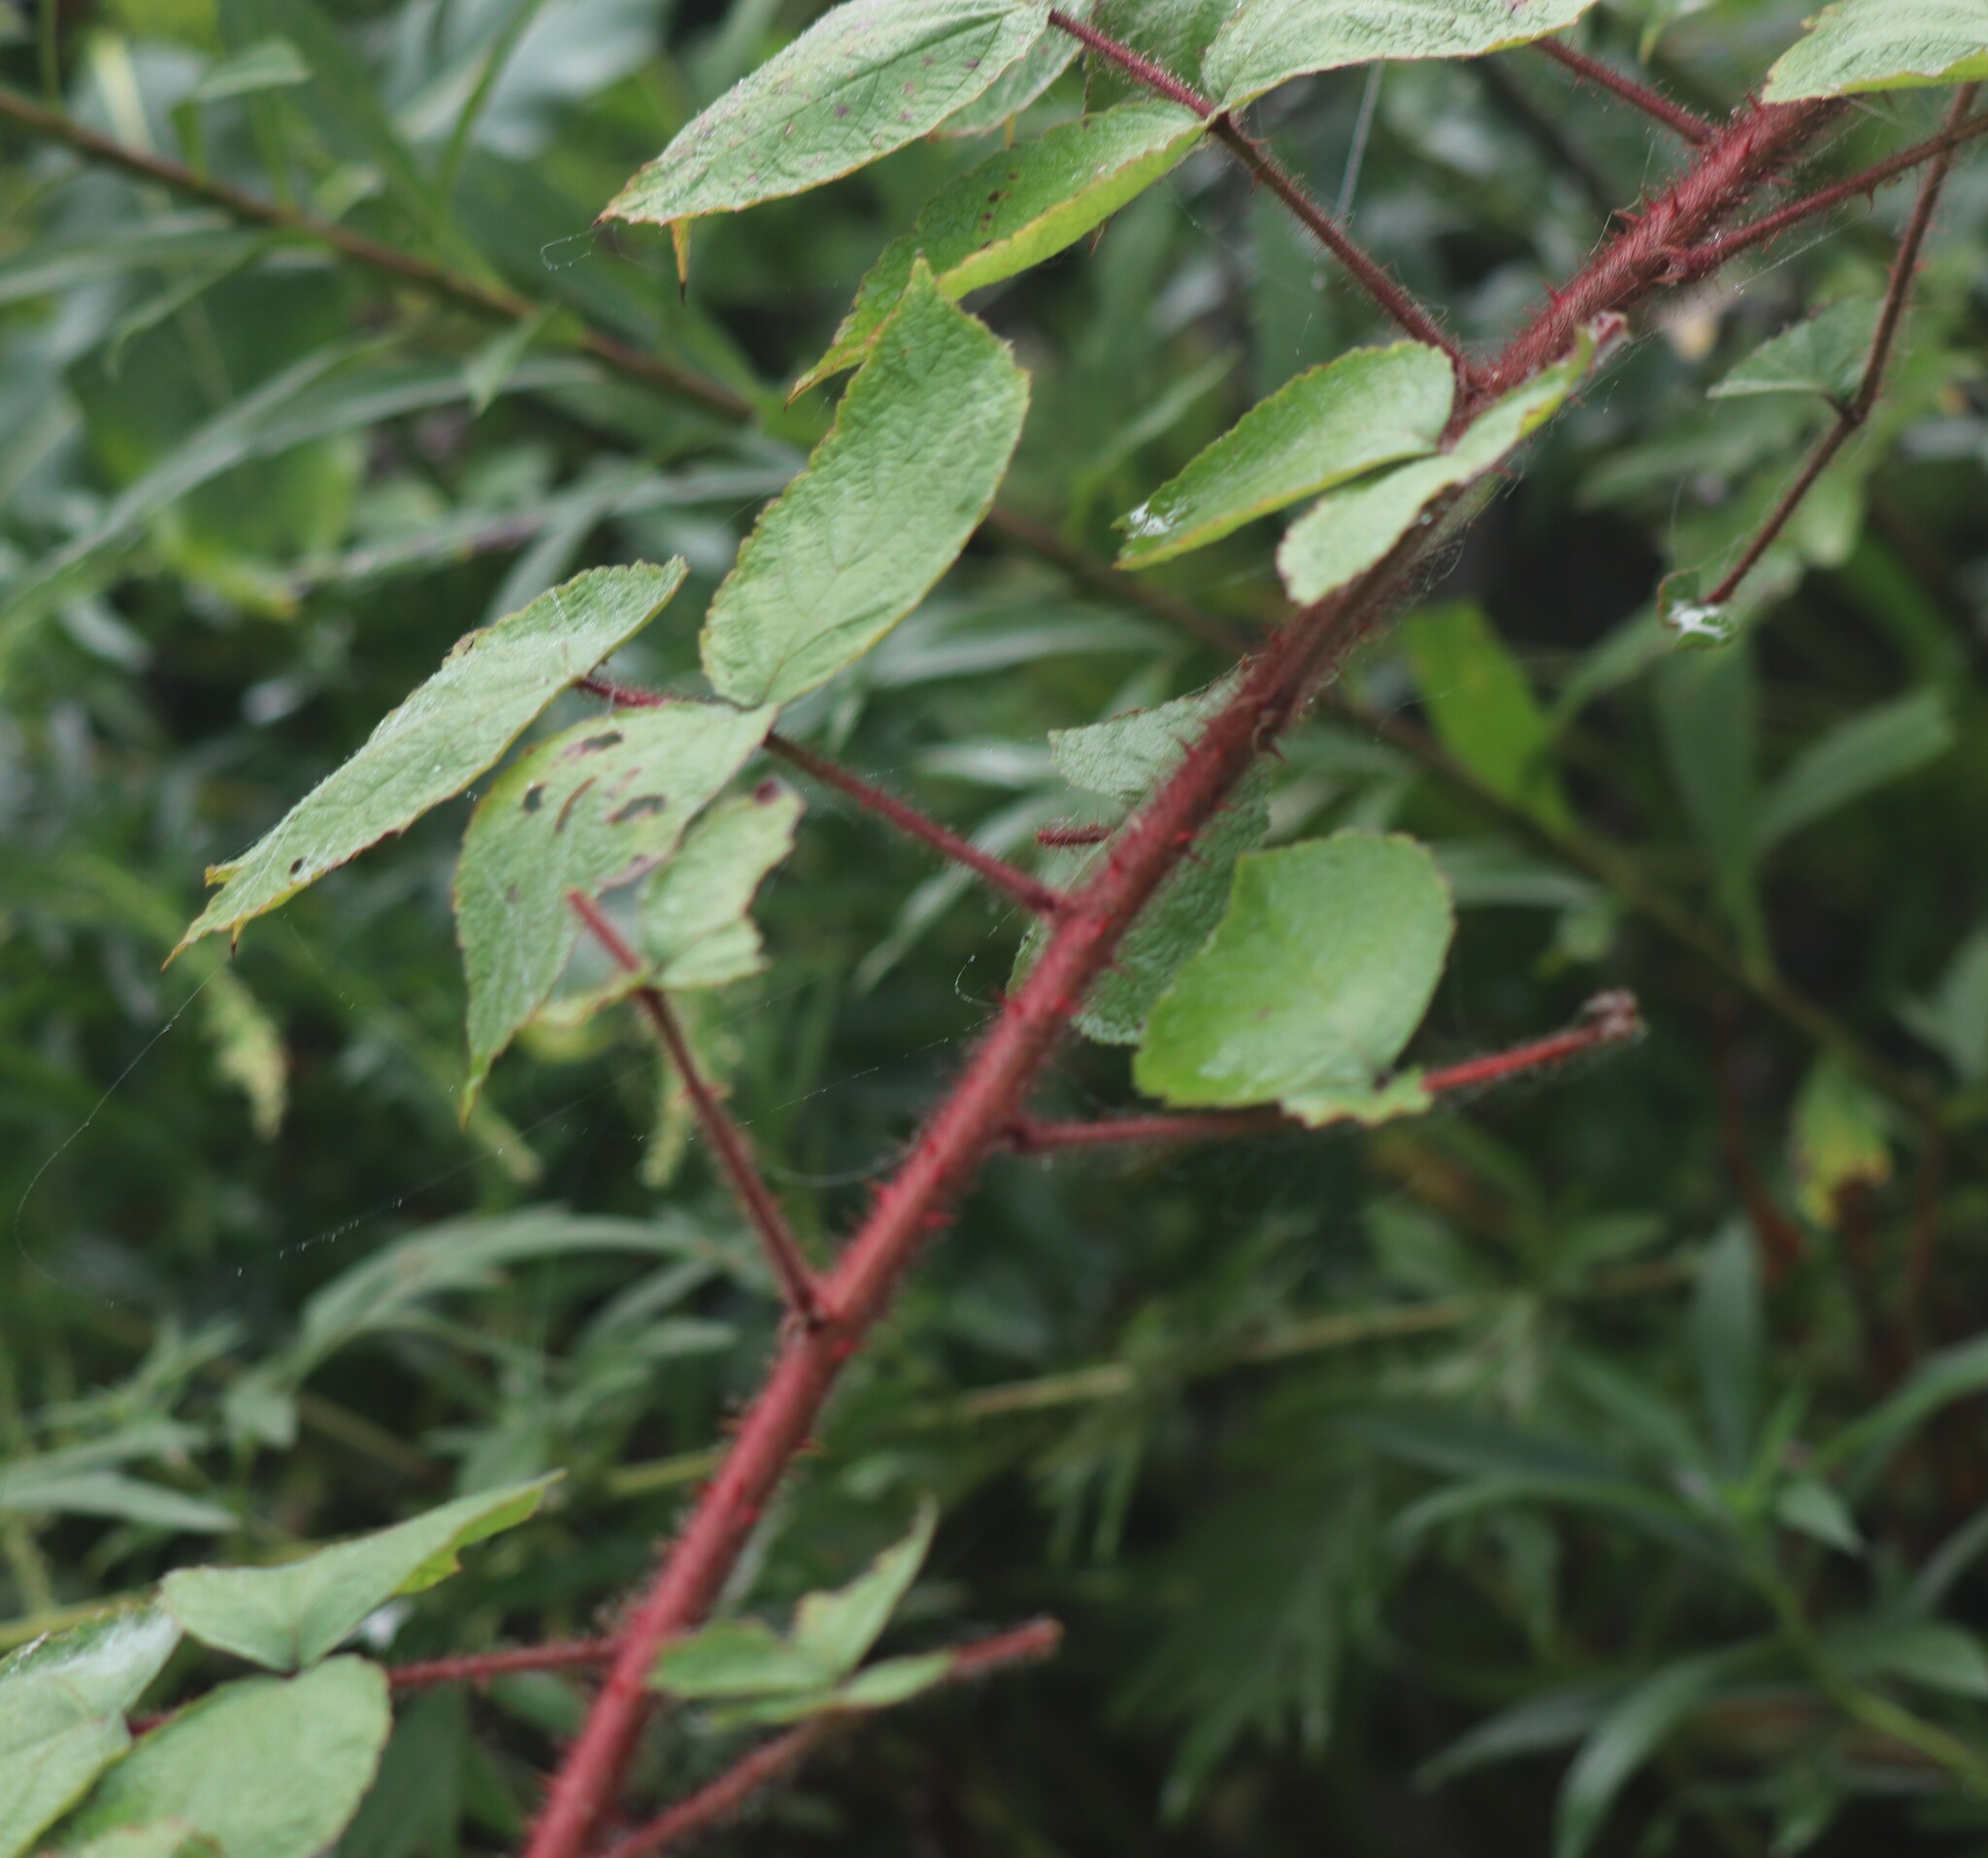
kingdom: Plantae
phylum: Tracheophyta
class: Magnoliopsida
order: Rosales
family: Rosaceae
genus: Rubus
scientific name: Rubus phoenicolasius
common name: Japanese wineberry
